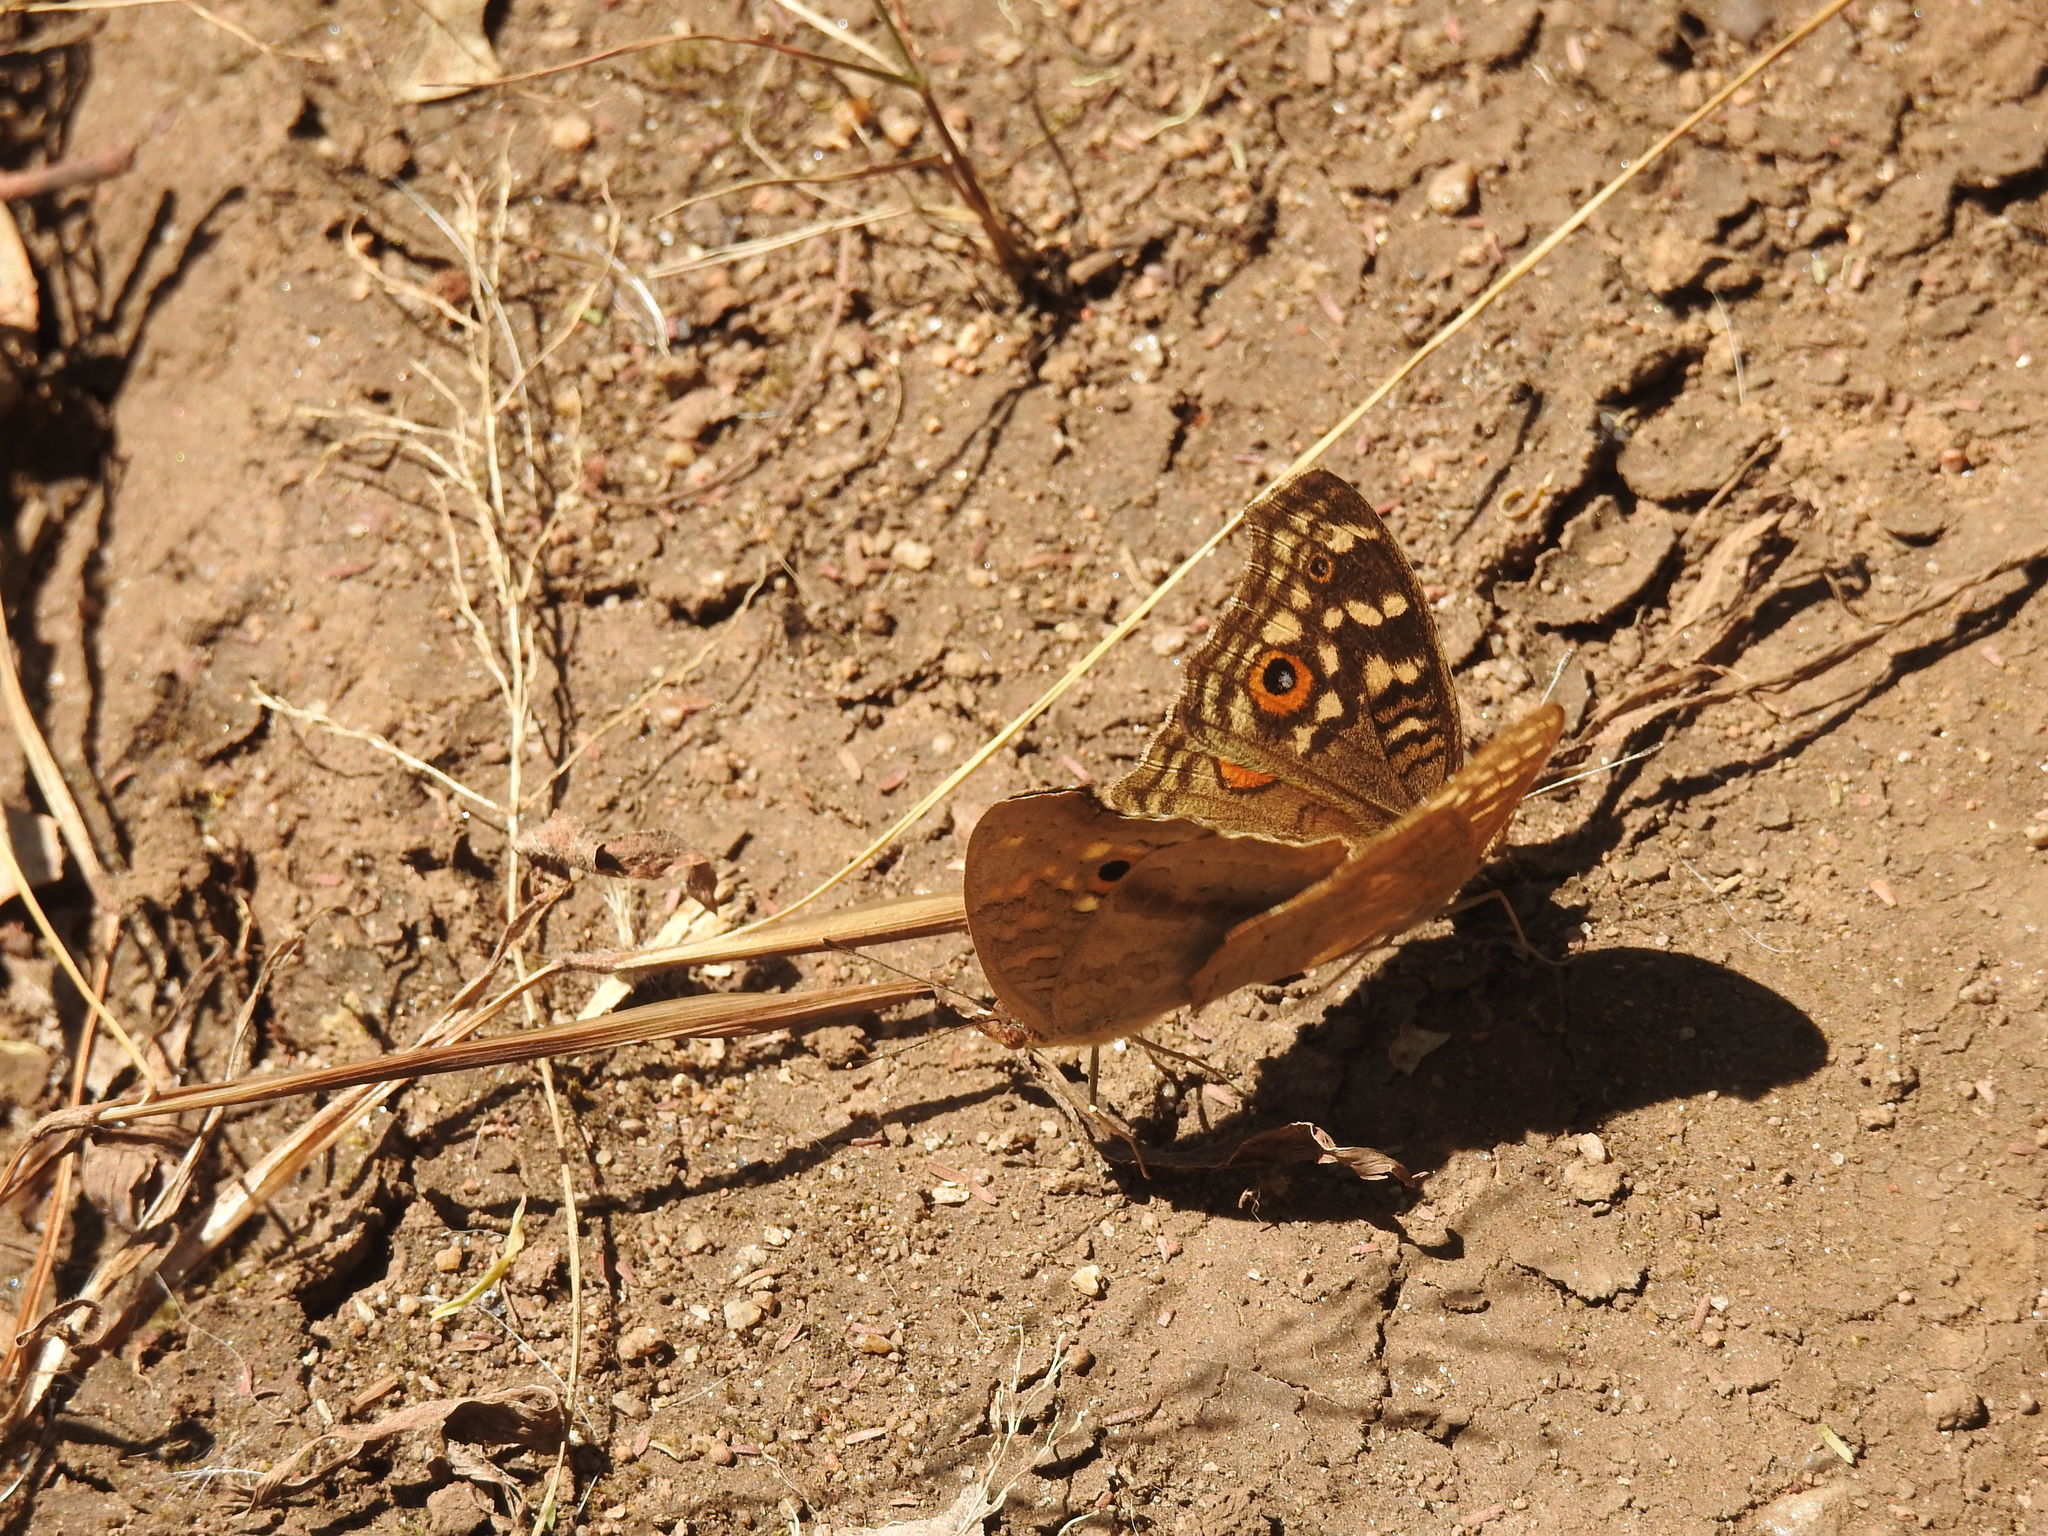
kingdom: Animalia
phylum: Arthropoda
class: Insecta
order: Lepidoptera
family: Nymphalidae
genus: Junonia
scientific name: Junonia lemonias
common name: Lemon pansy
